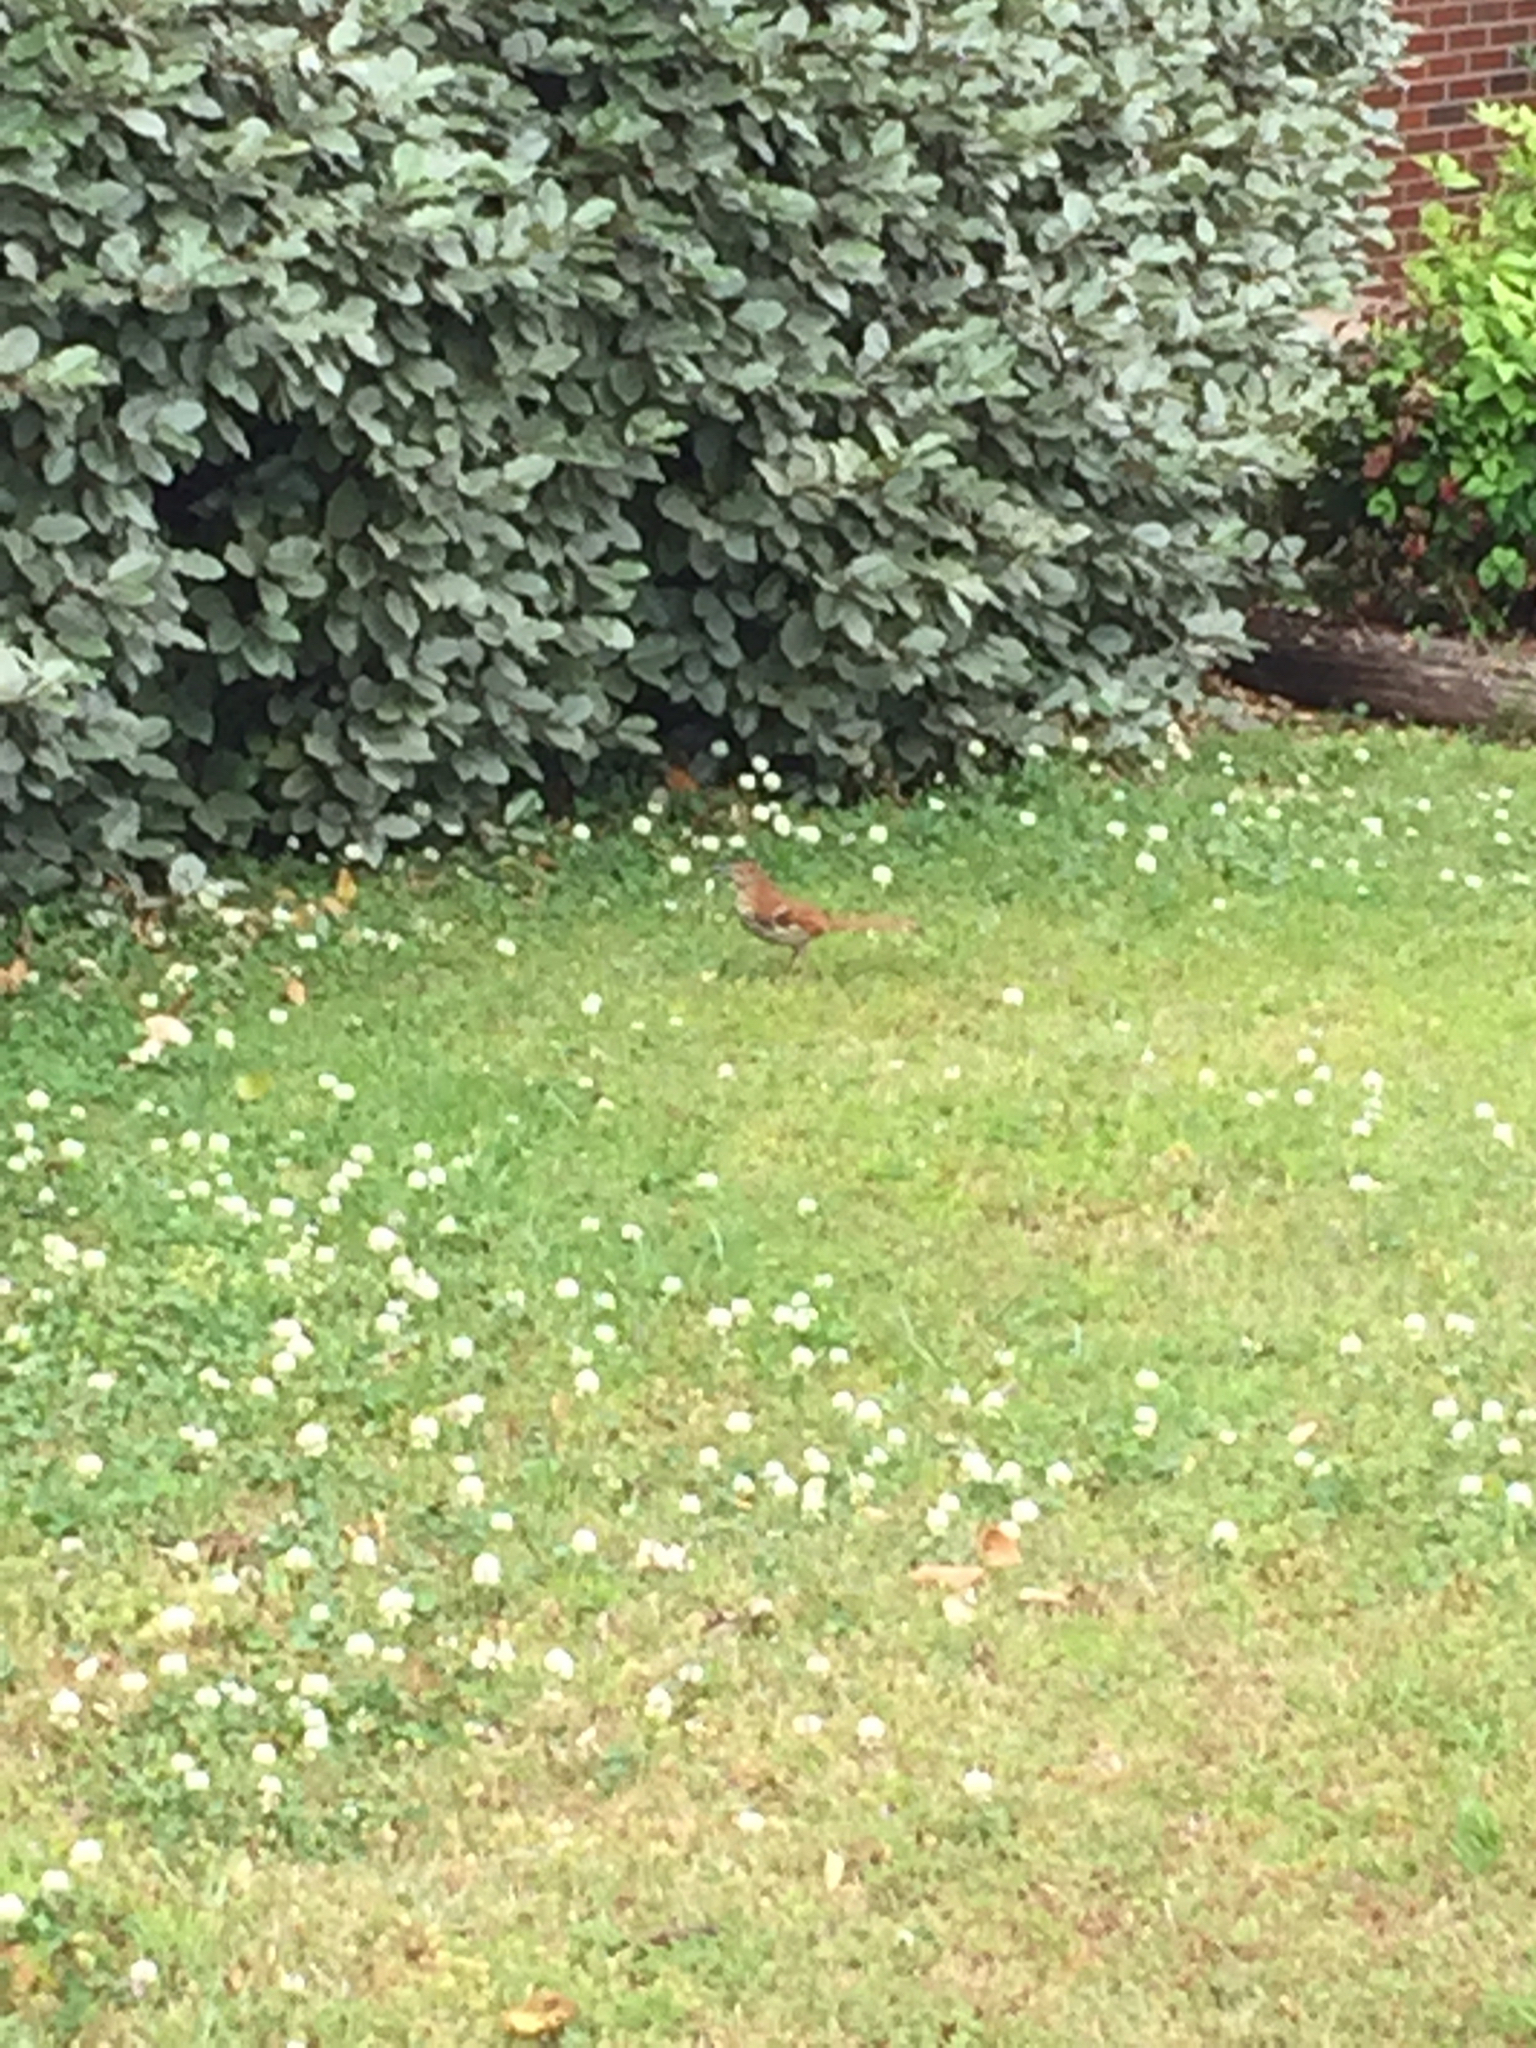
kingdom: Animalia
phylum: Chordata
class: Aves
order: Passeriformes
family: Mimidae
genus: Toxostoma
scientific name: Toxostoma rufum
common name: Brown thrasher
